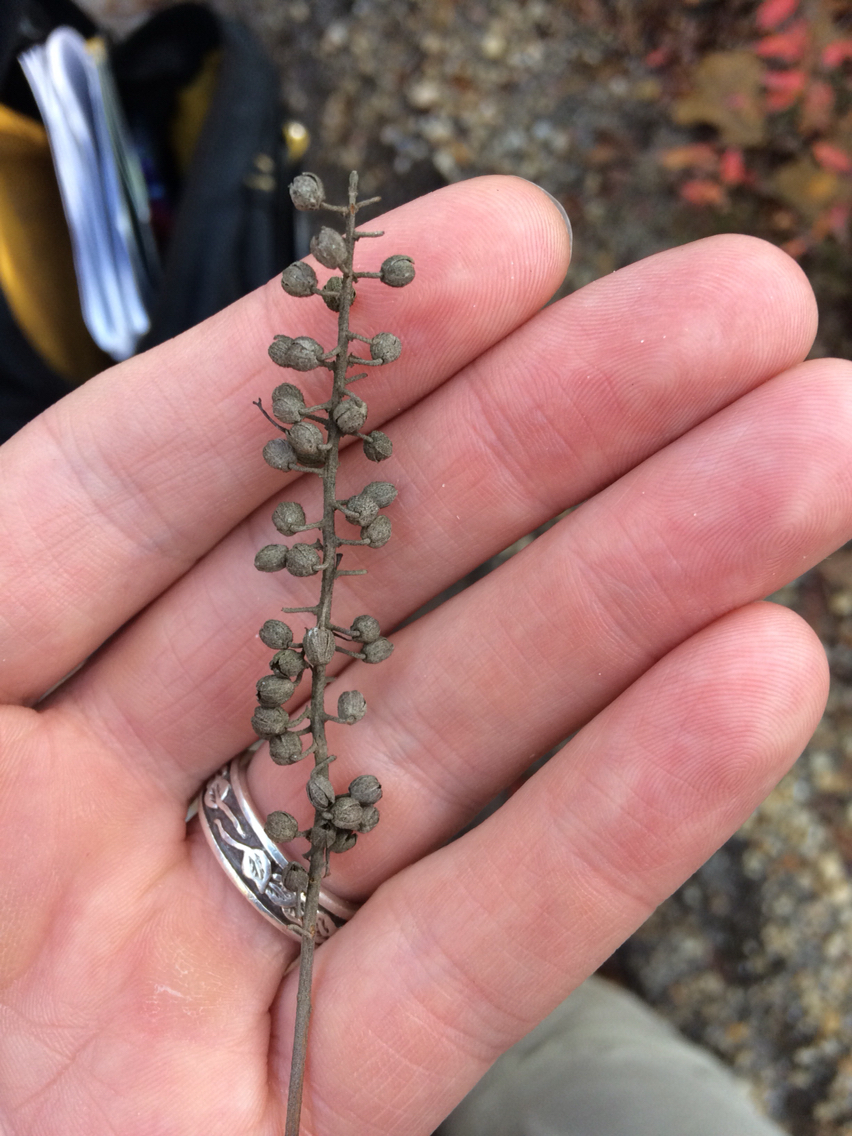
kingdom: Plantae
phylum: Tracheophyta
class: Magnoliopsida
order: Ericales
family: Clethraceae
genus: Clethra
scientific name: Clethra alnifolia
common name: Sweet pepperbush
